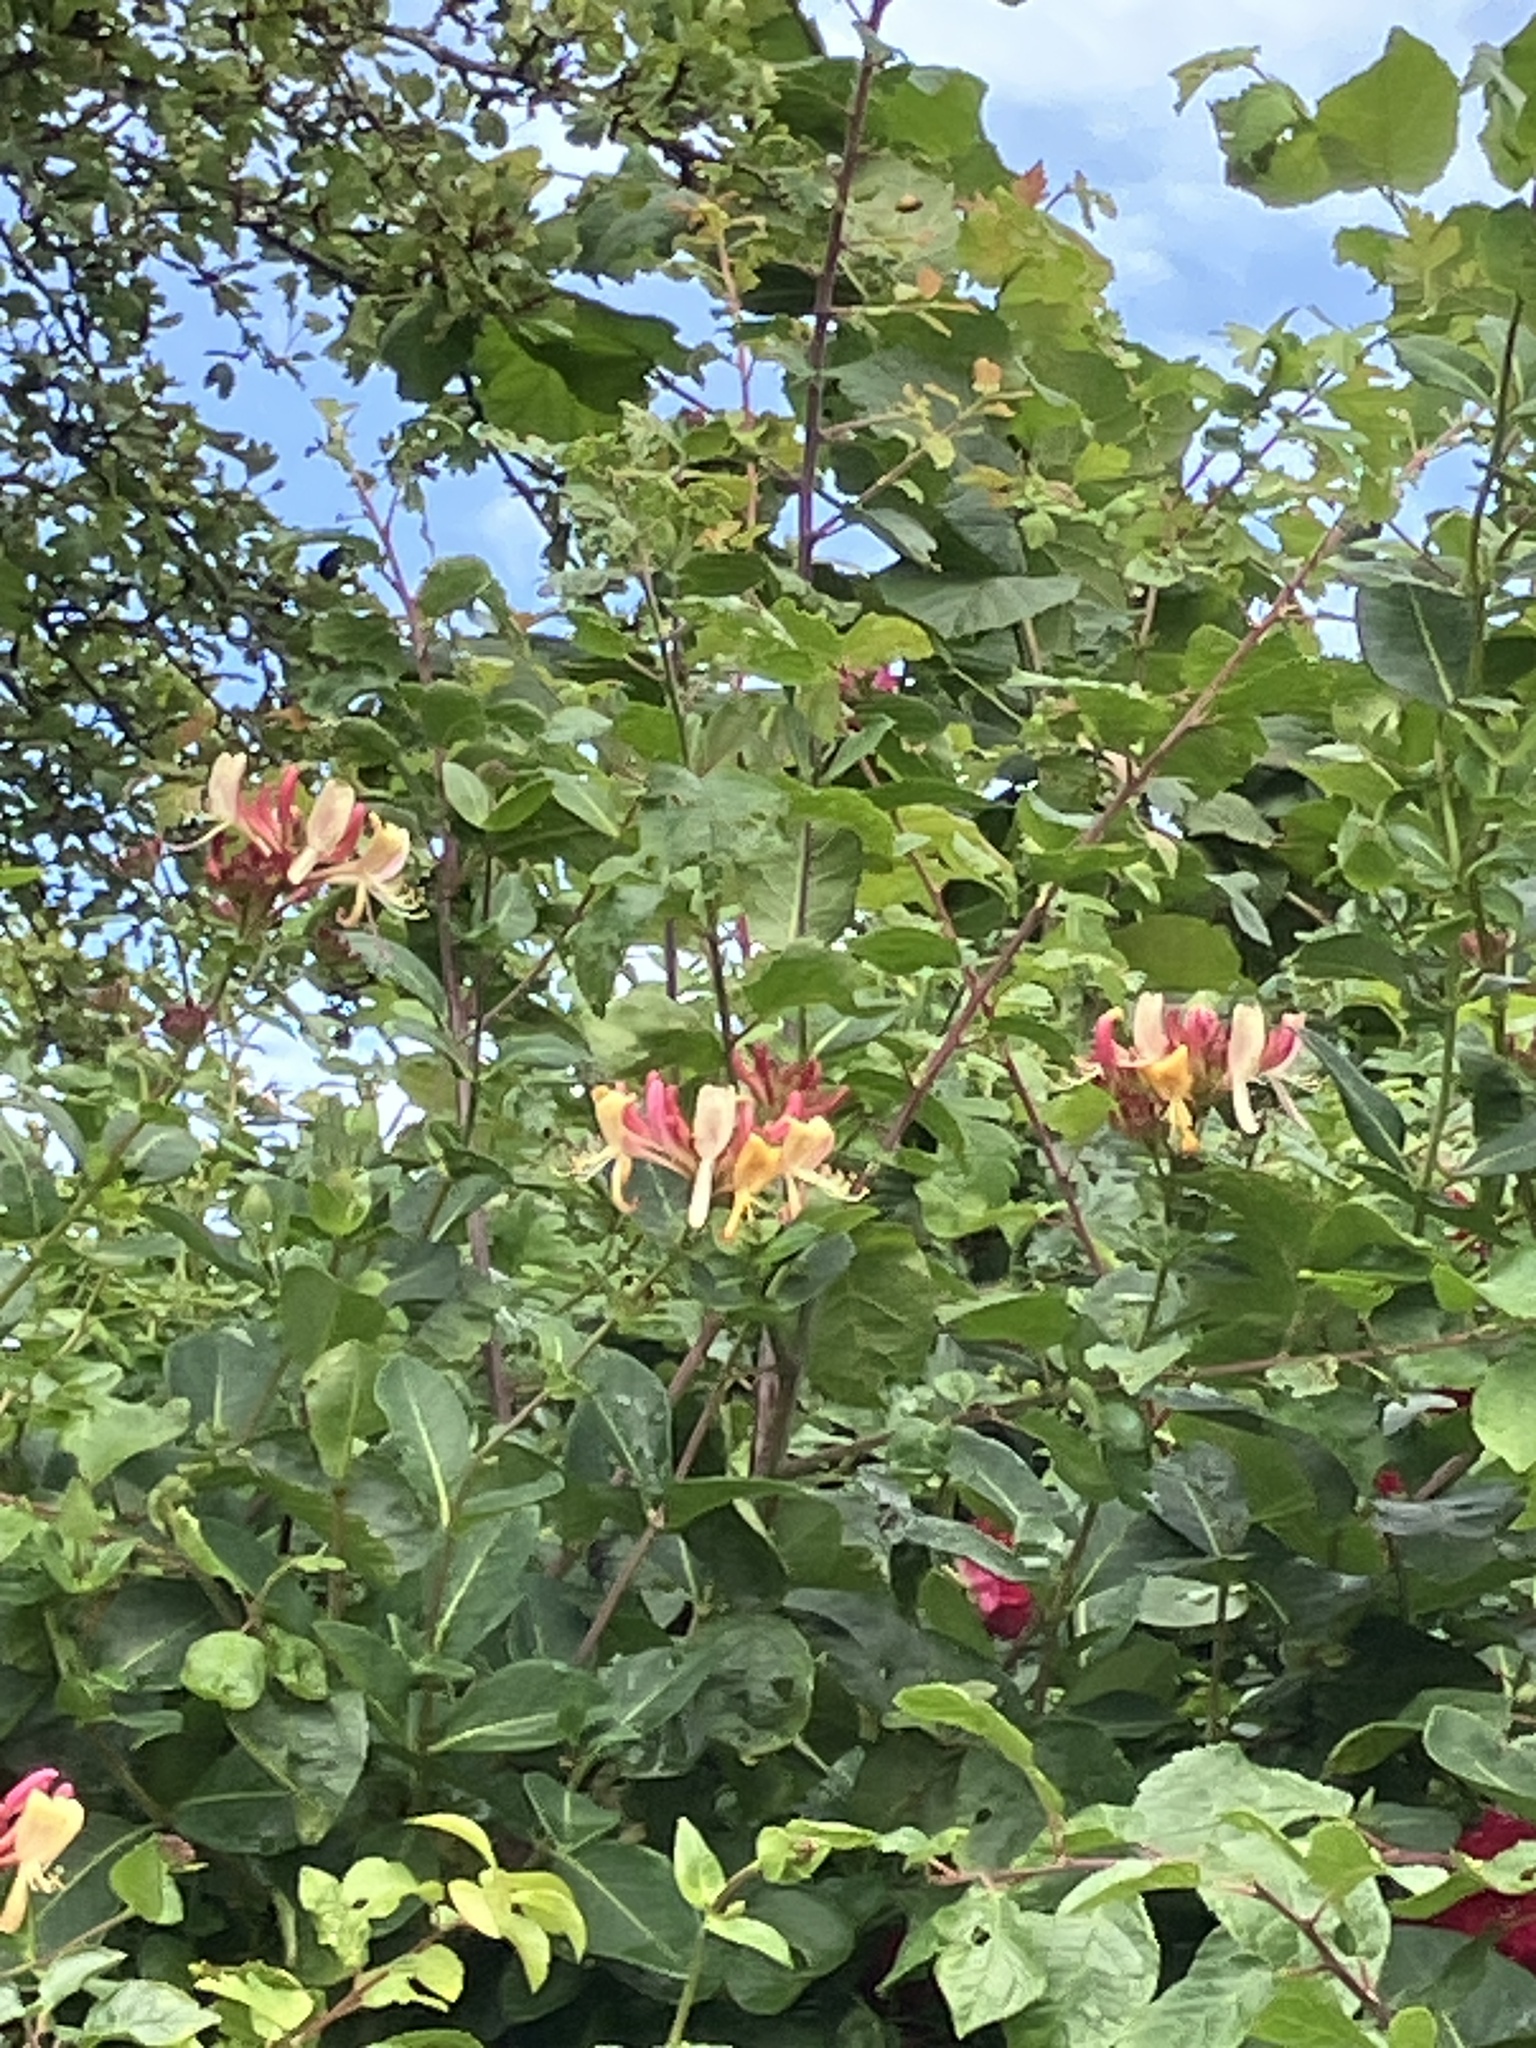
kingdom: Plantae
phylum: Tracheophyta
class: Magnoliopsida
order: Dipsacales
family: Caprifoliaceae
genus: Lonicera
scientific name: Lonicera periclymenum
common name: European honeysuckle
